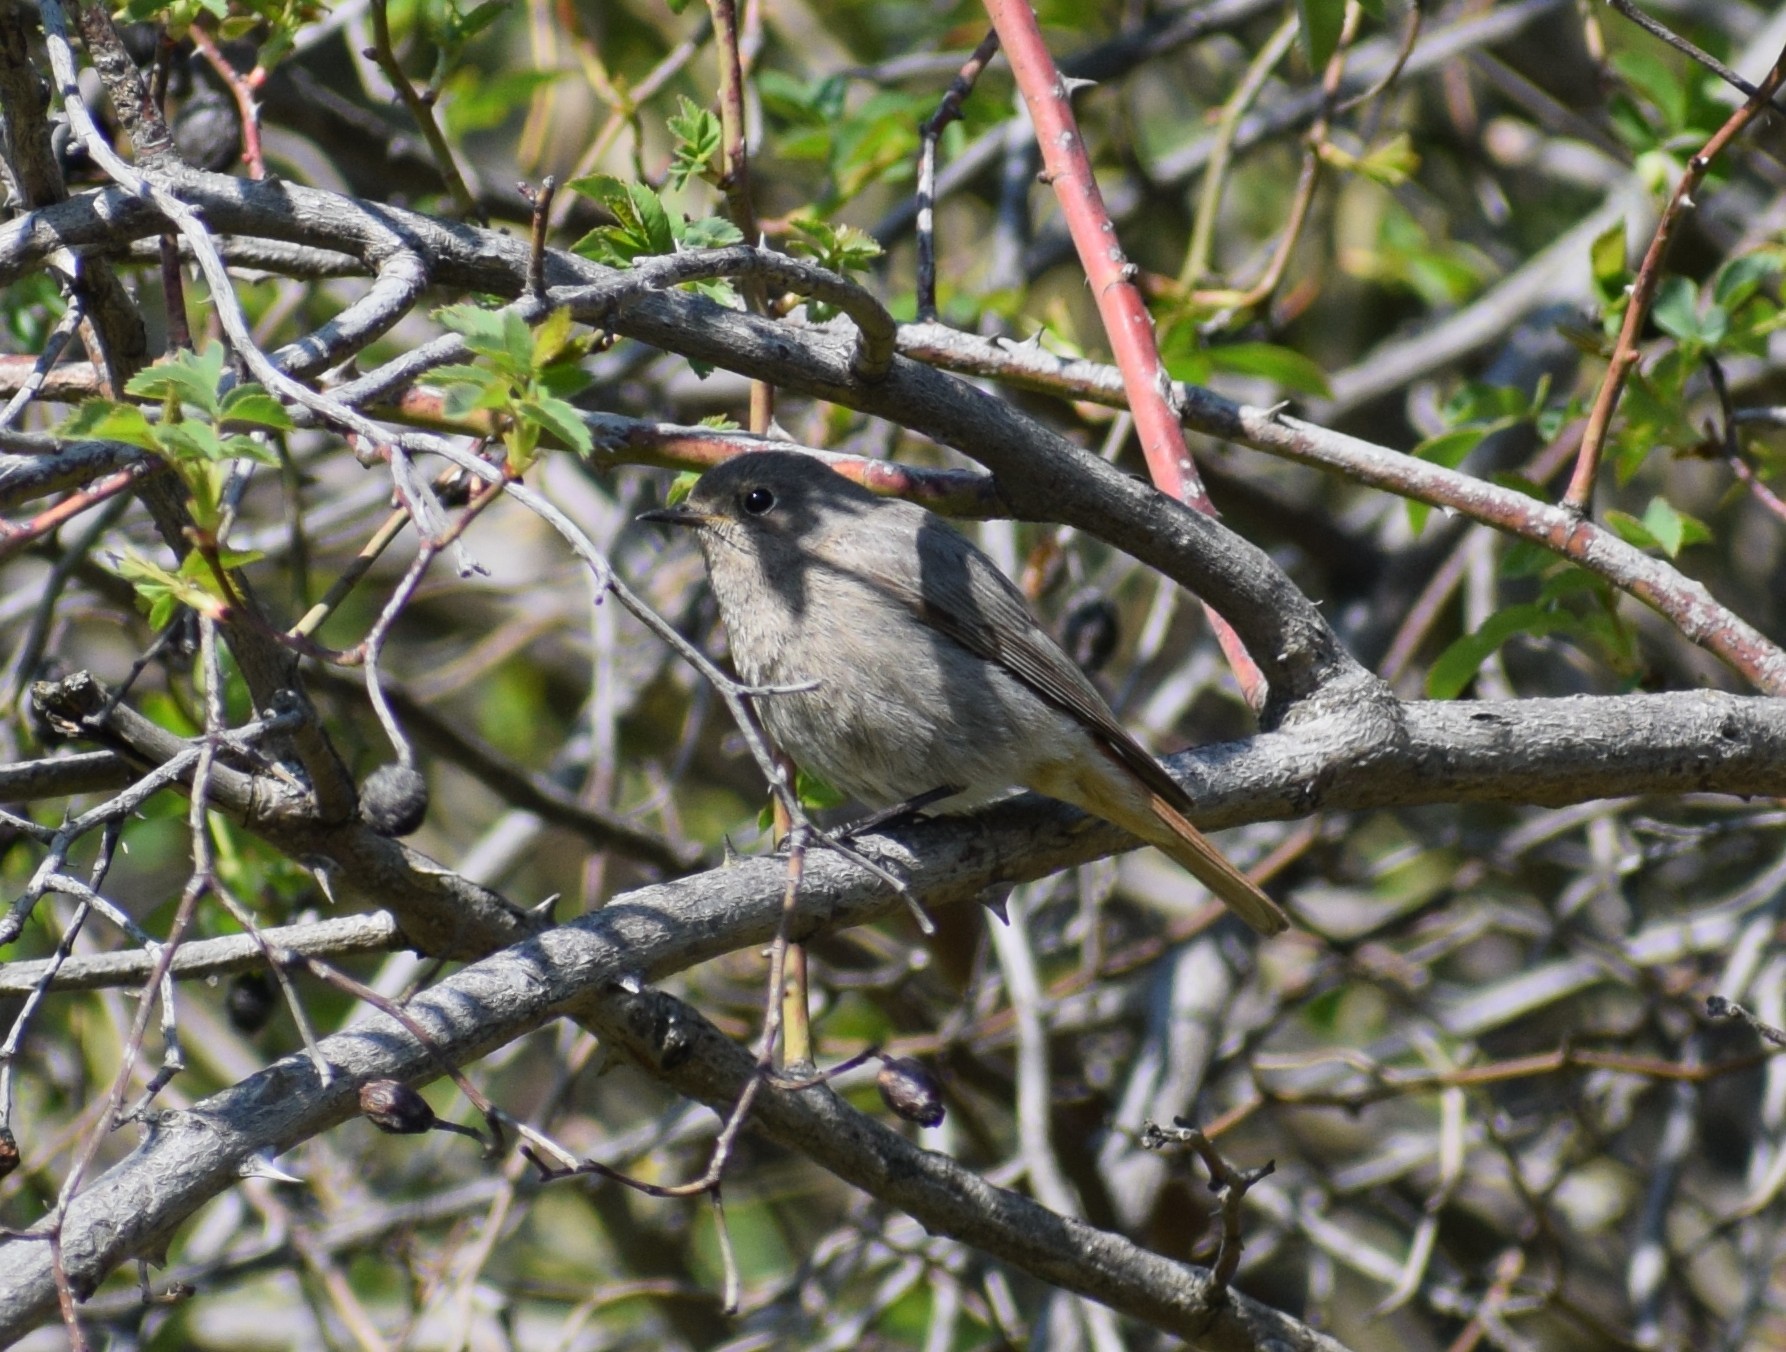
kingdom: Animalia
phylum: Chordata
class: Aves
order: Passeriformes
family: Muscicapidae
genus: Phoenicurus
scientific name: Phoenicurus ochruros
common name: Black redstart
